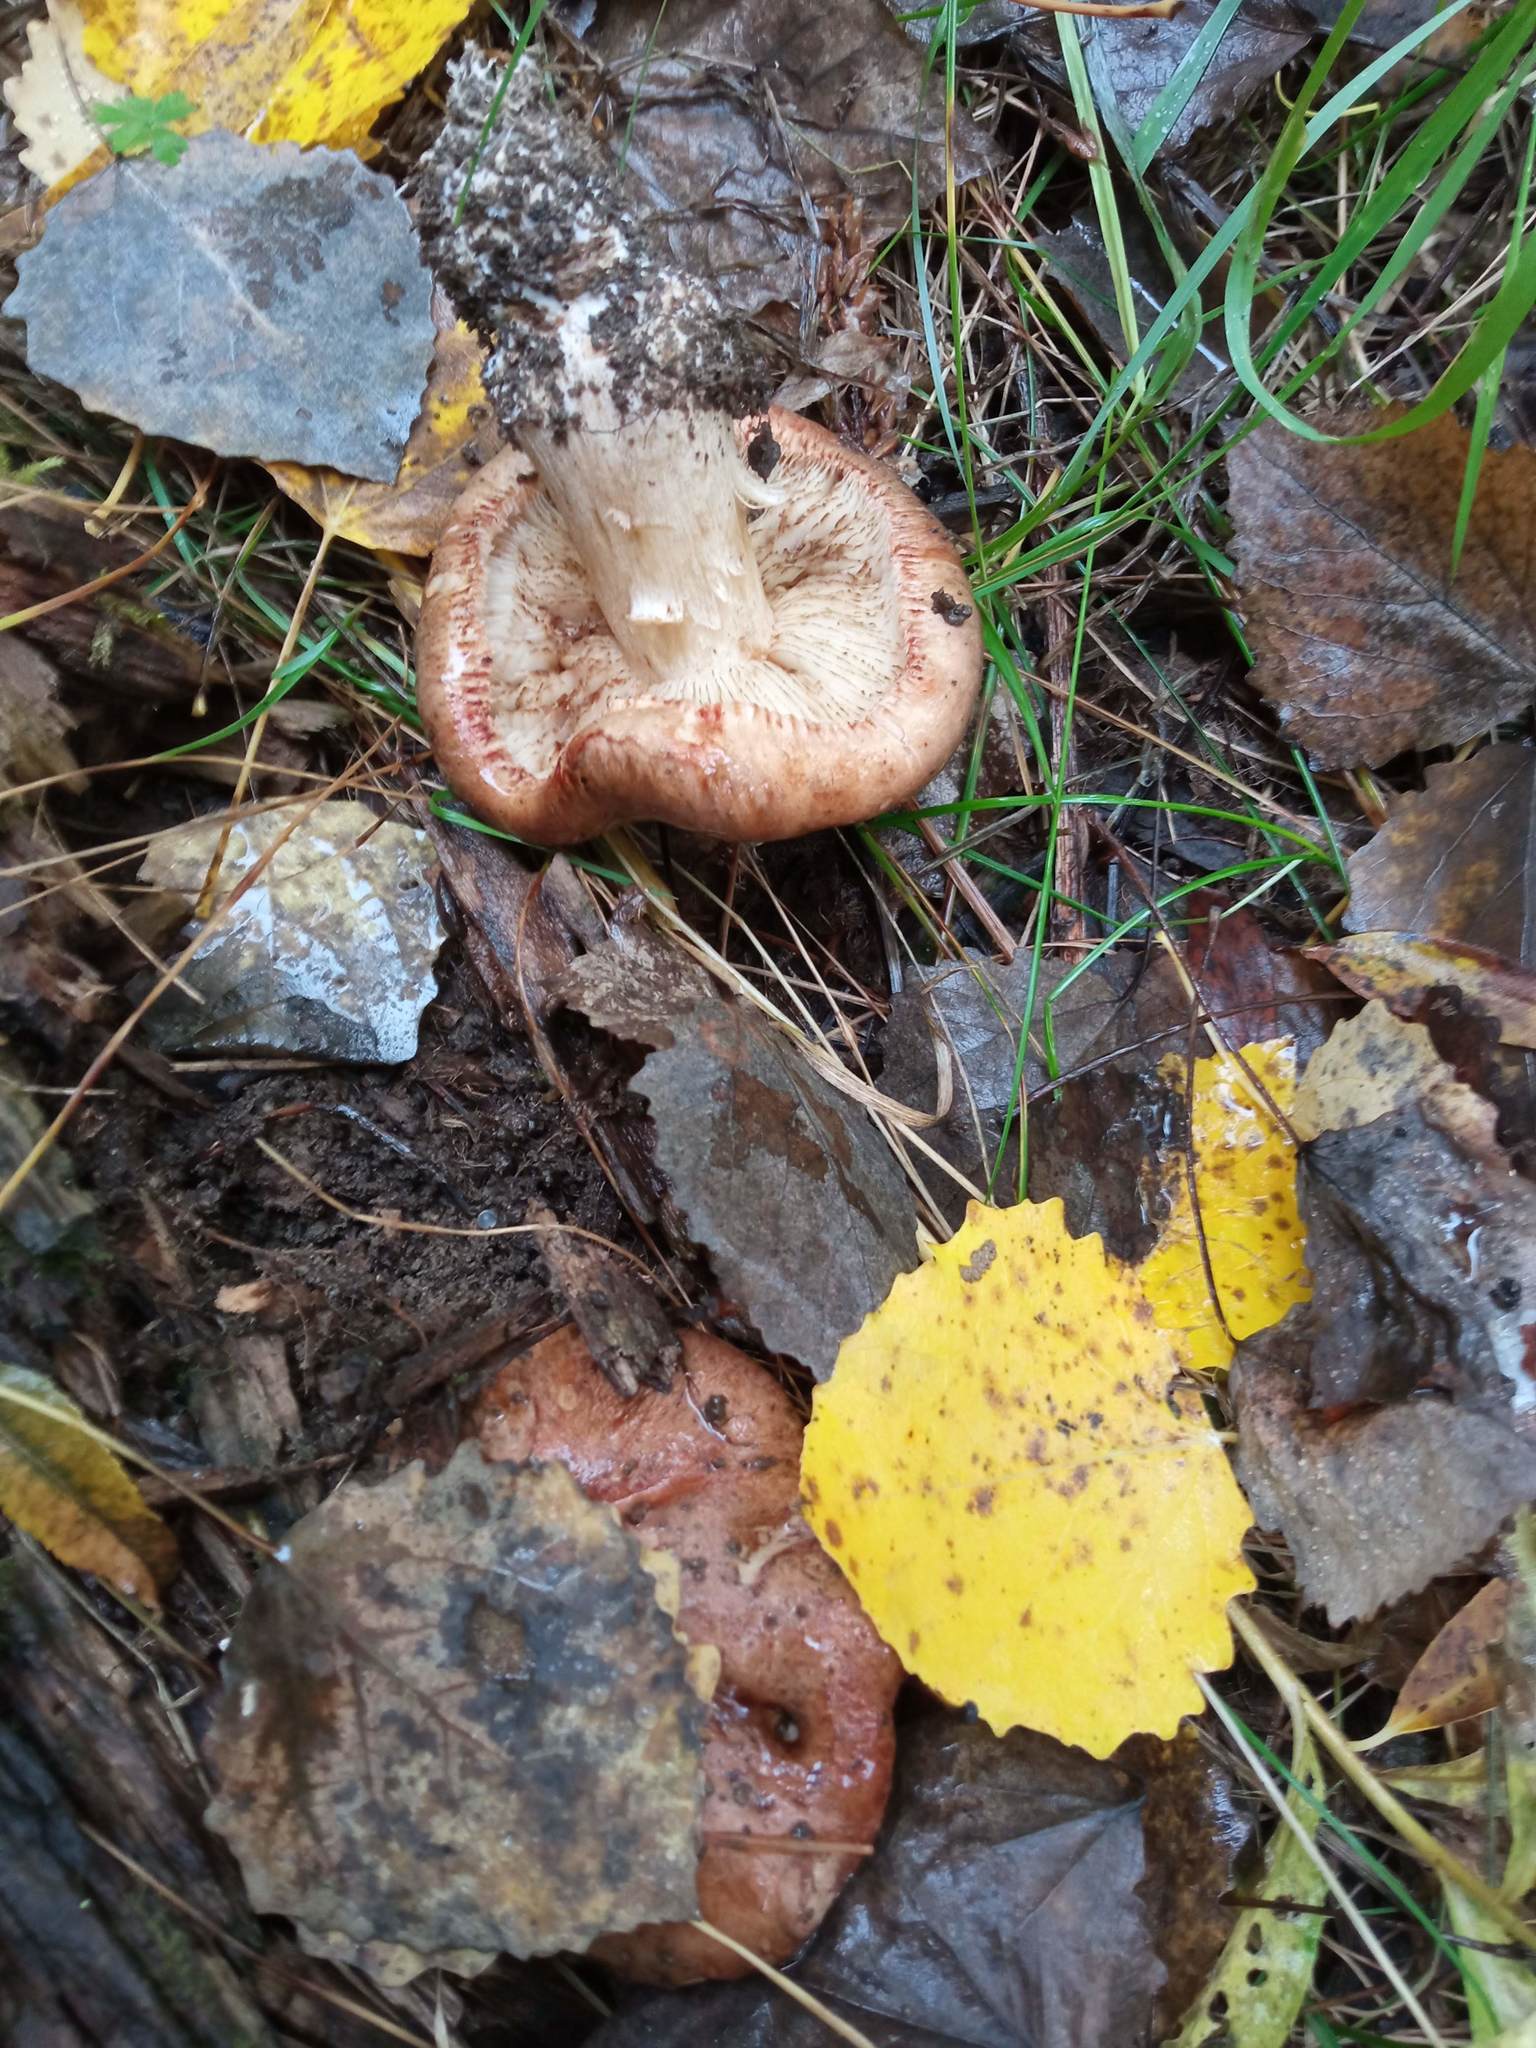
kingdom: Fungi
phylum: Basidiomycota
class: Agaricomycetes
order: Boletales
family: Paxillaceae
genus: Paxillus
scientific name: Paxillus involutus
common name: Brown roll rim
